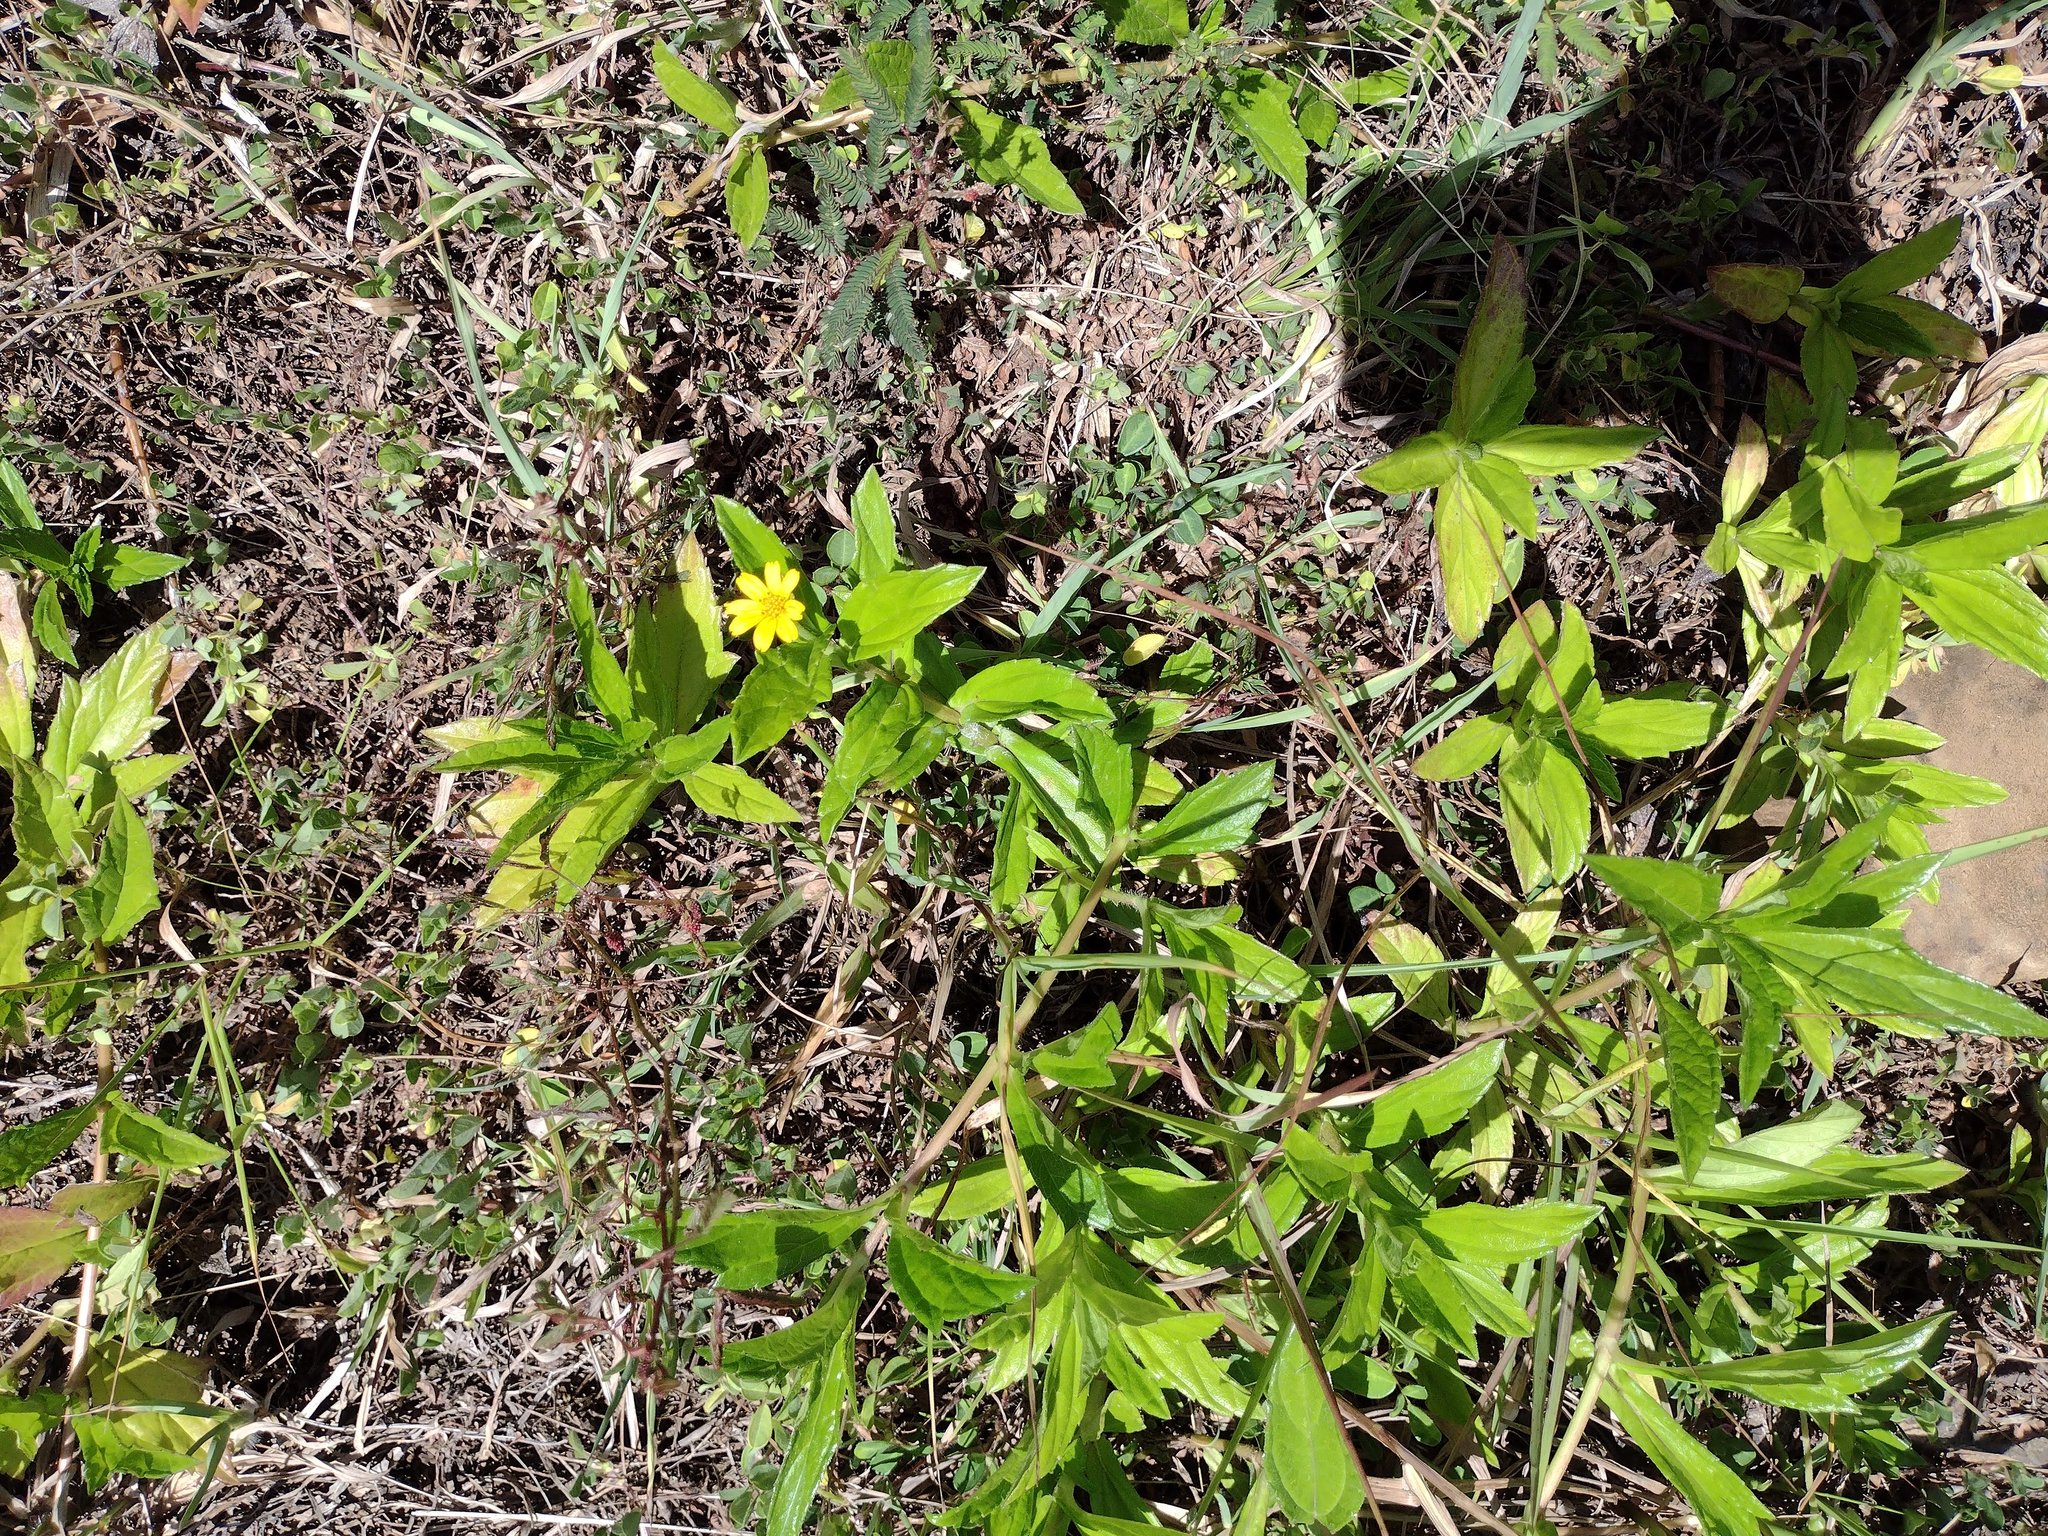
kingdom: Plantae
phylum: Tracheophyta
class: Magnoliopsida
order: Asterales
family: Asteraceae
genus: Sphagneticola
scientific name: Sphagneticola trilobata
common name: Bay biscayne creeping-oxeye
